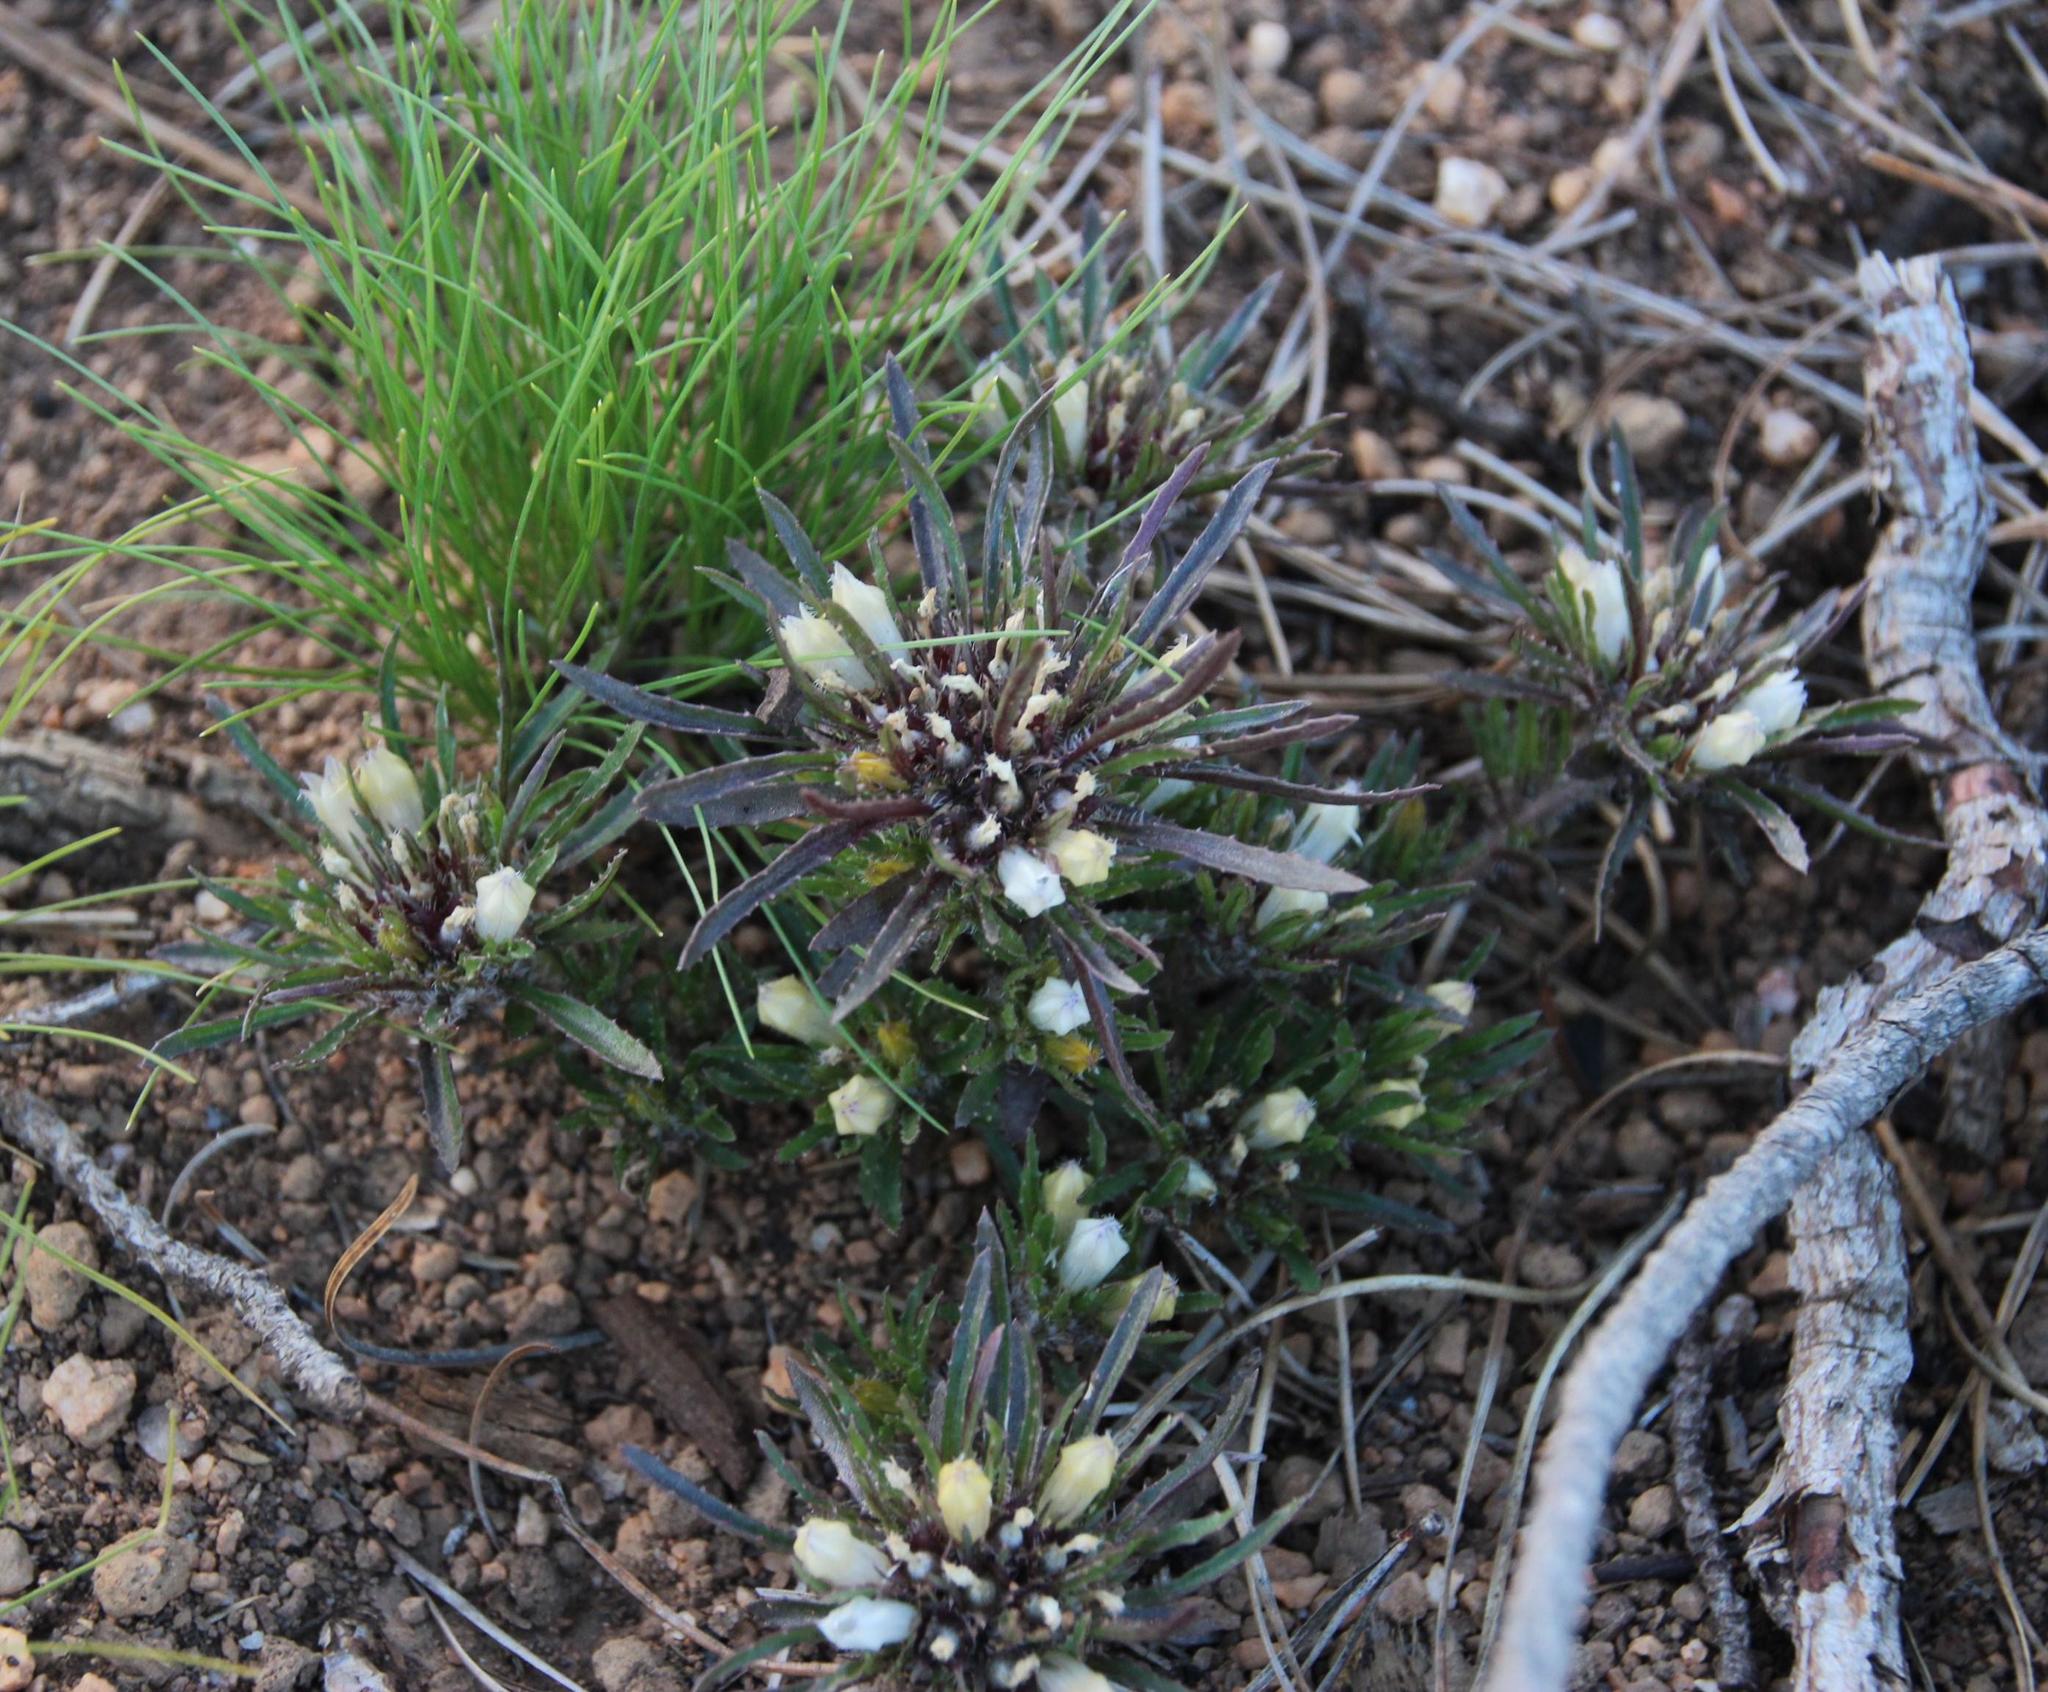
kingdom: Plantae
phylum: Tracheophyta
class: Magnoliopsida
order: Asterales
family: Campanulaceae
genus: Treichelia
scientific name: Treichelia longibracteata
